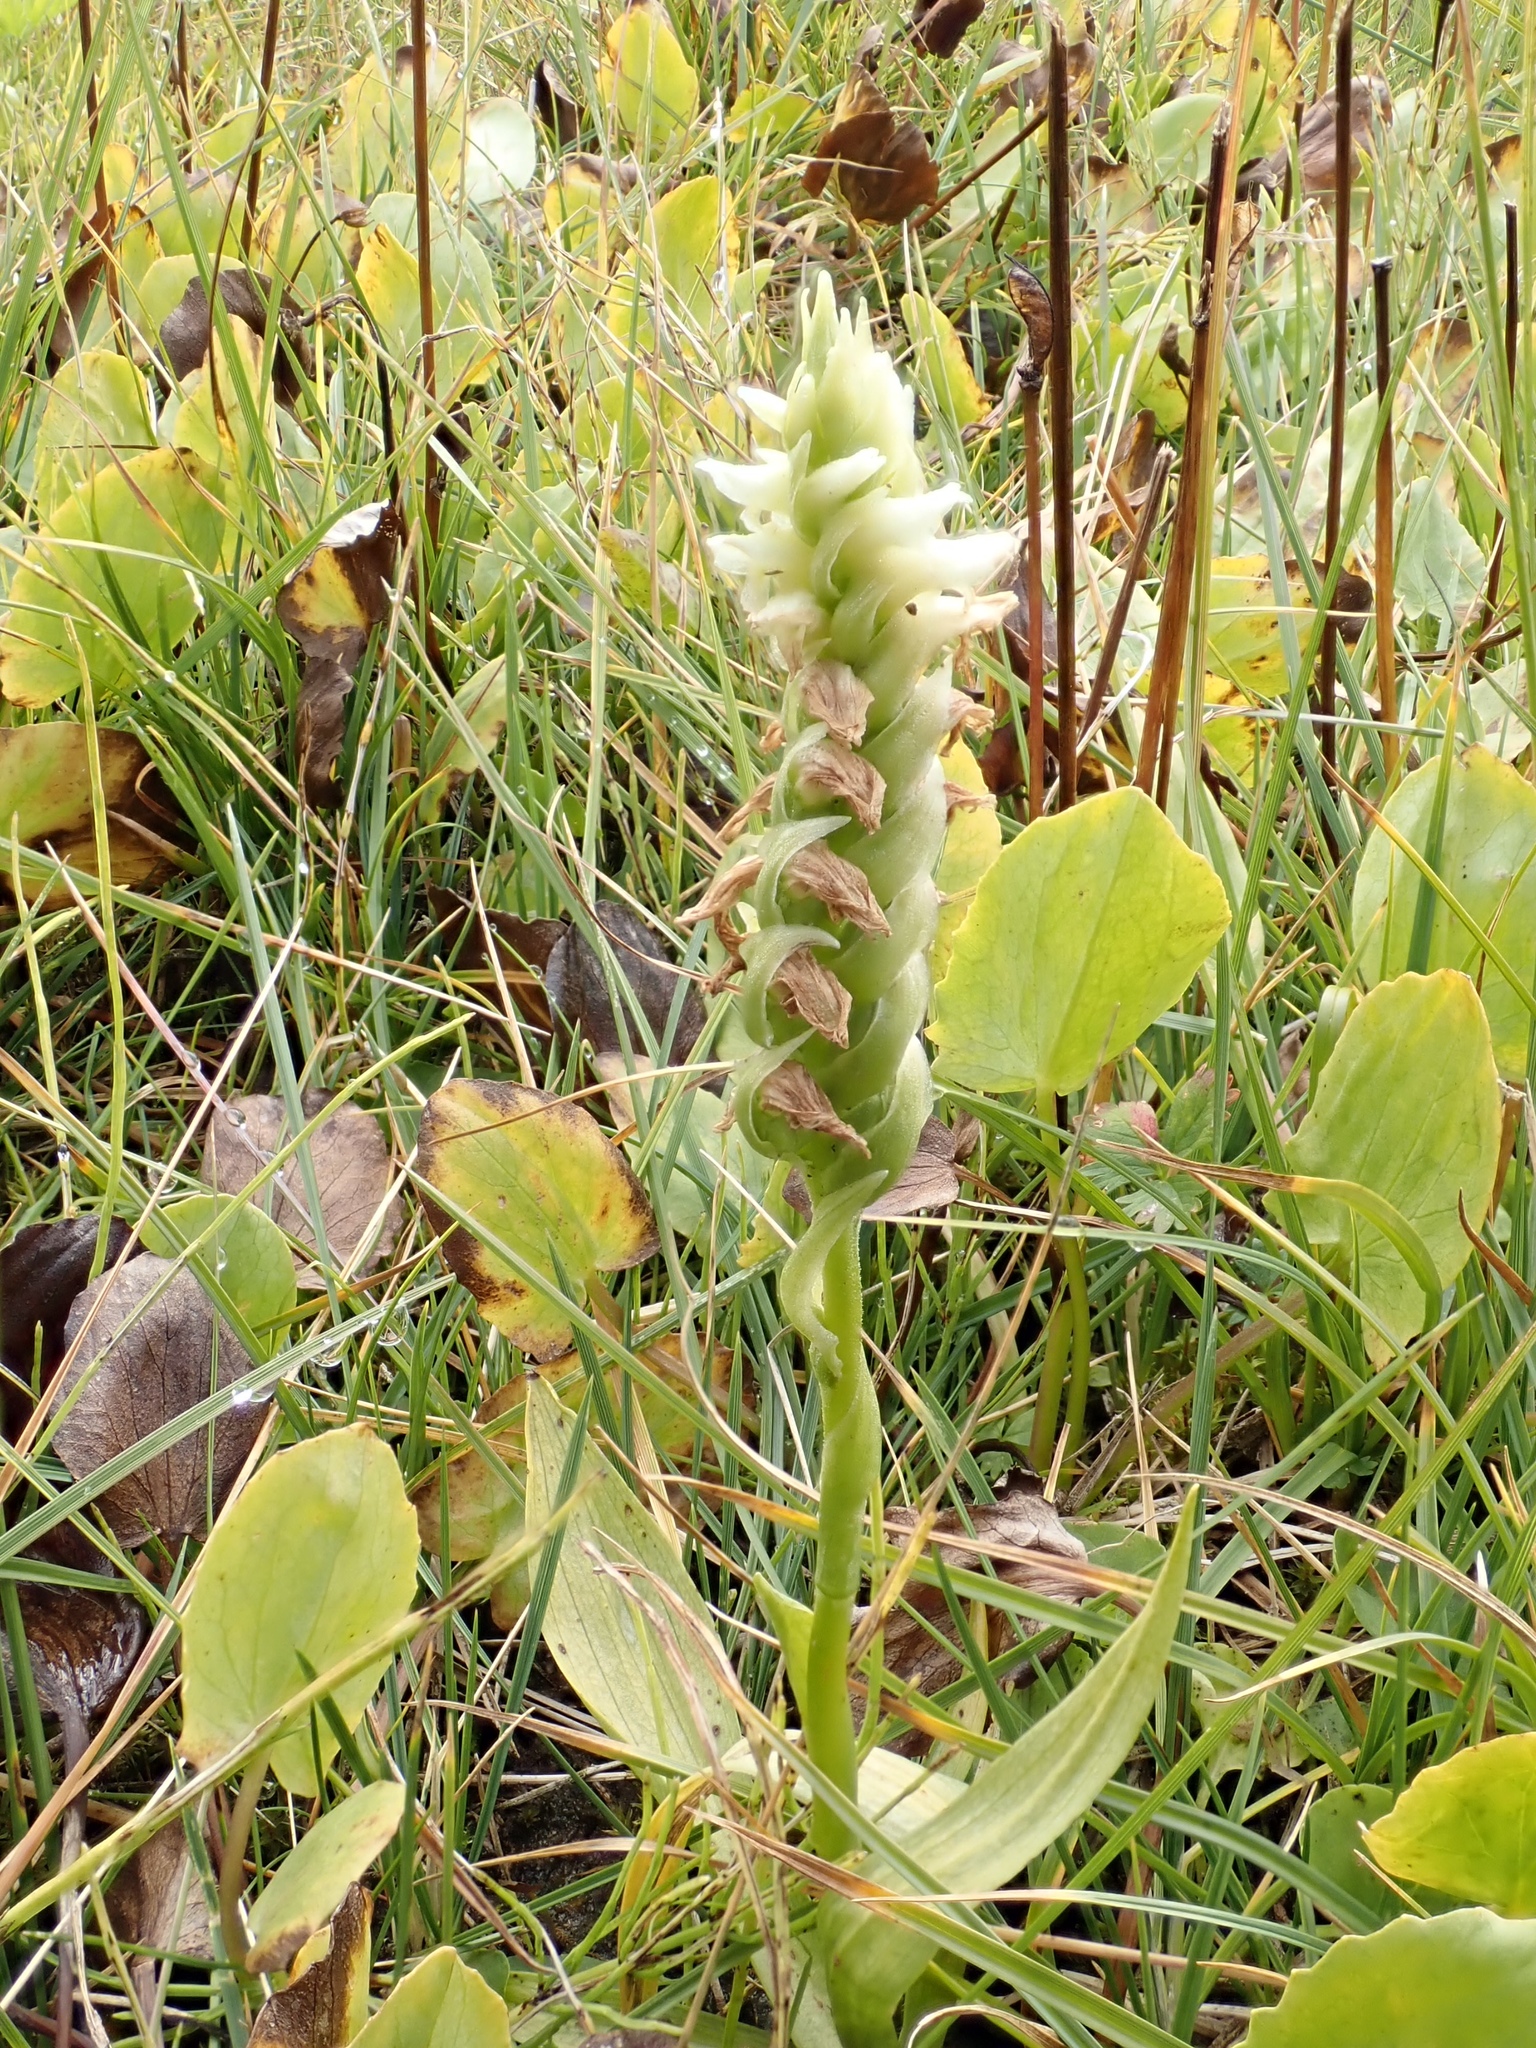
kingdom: Plantae
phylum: Tracheophyta
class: Liliopsida
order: Asparagales
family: Orchidaceae
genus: Spiranthes
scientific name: Spiranthes romanzoffiana
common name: Irish lady's-tresses
